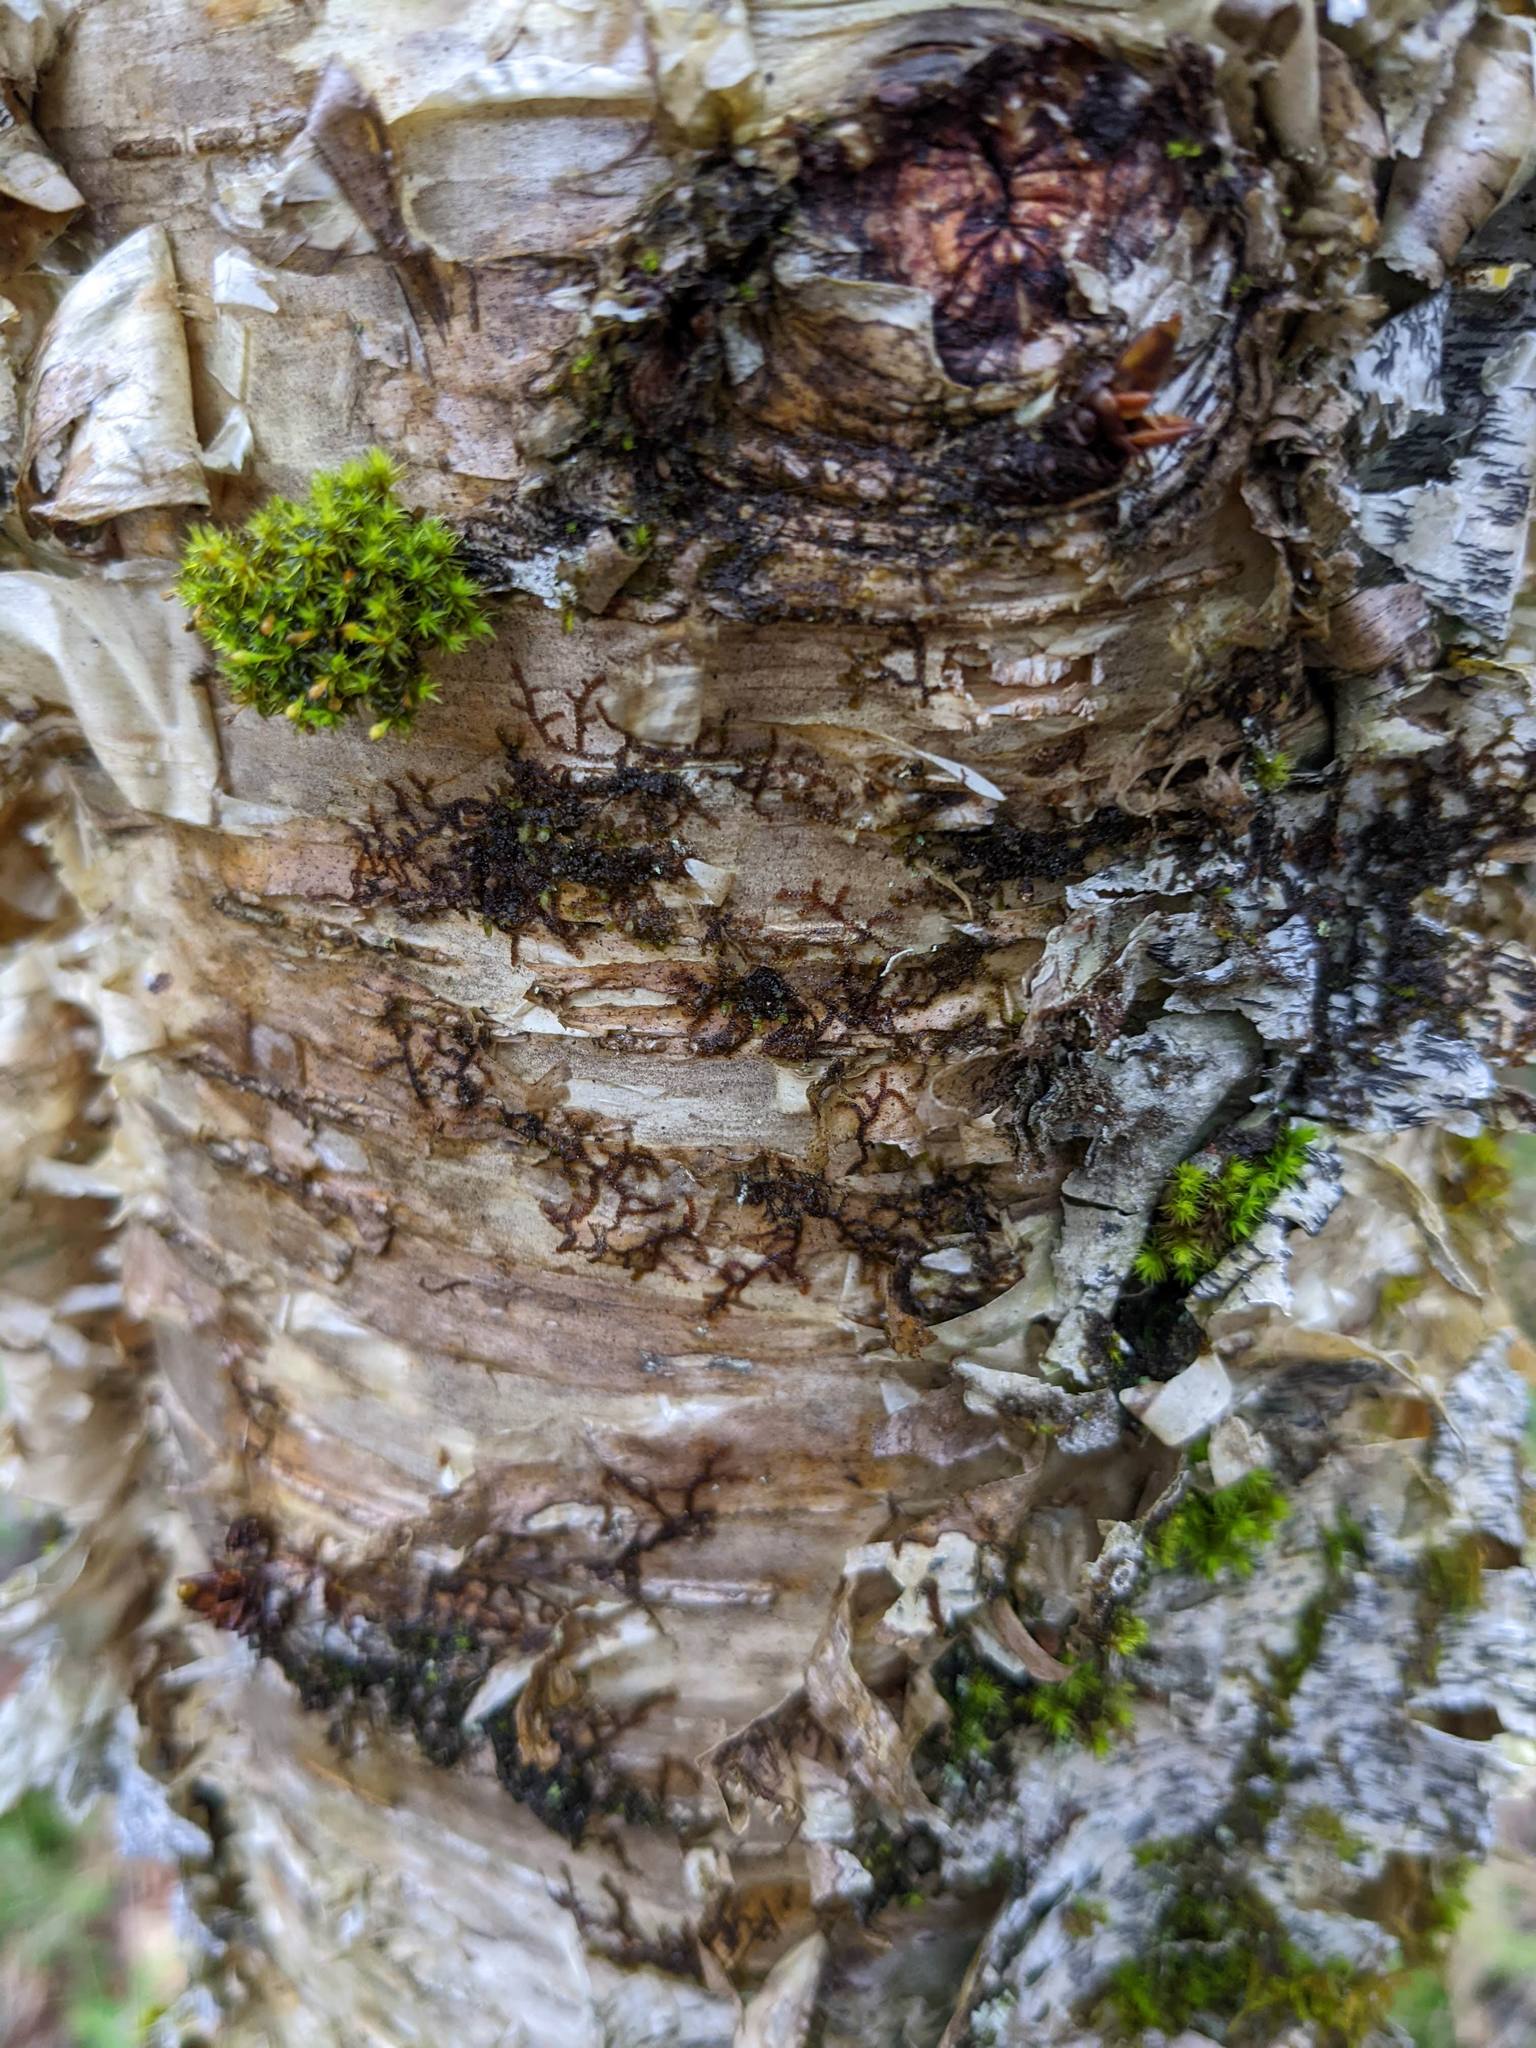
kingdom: Plantae
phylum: Marchantiophyta
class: Jungermanniopsida
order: Porellales
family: Frullaniaceae
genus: Frullania
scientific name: Frullania eboracensis
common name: New york scalewort
